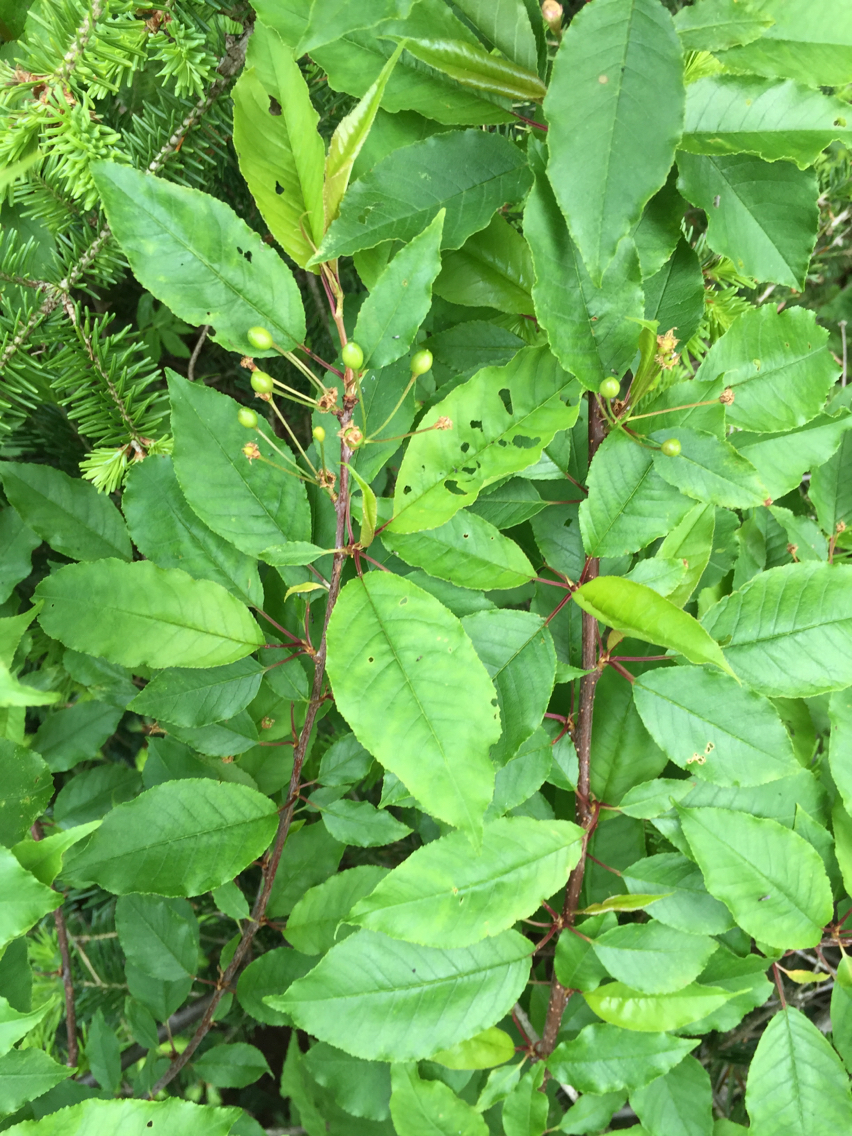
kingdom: Plantae
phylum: Tracheophyta
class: Magnoliopsida
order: Rosales
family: Rosaceae
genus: Prunus
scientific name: Prunus pensylvanica
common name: Pin cherry
